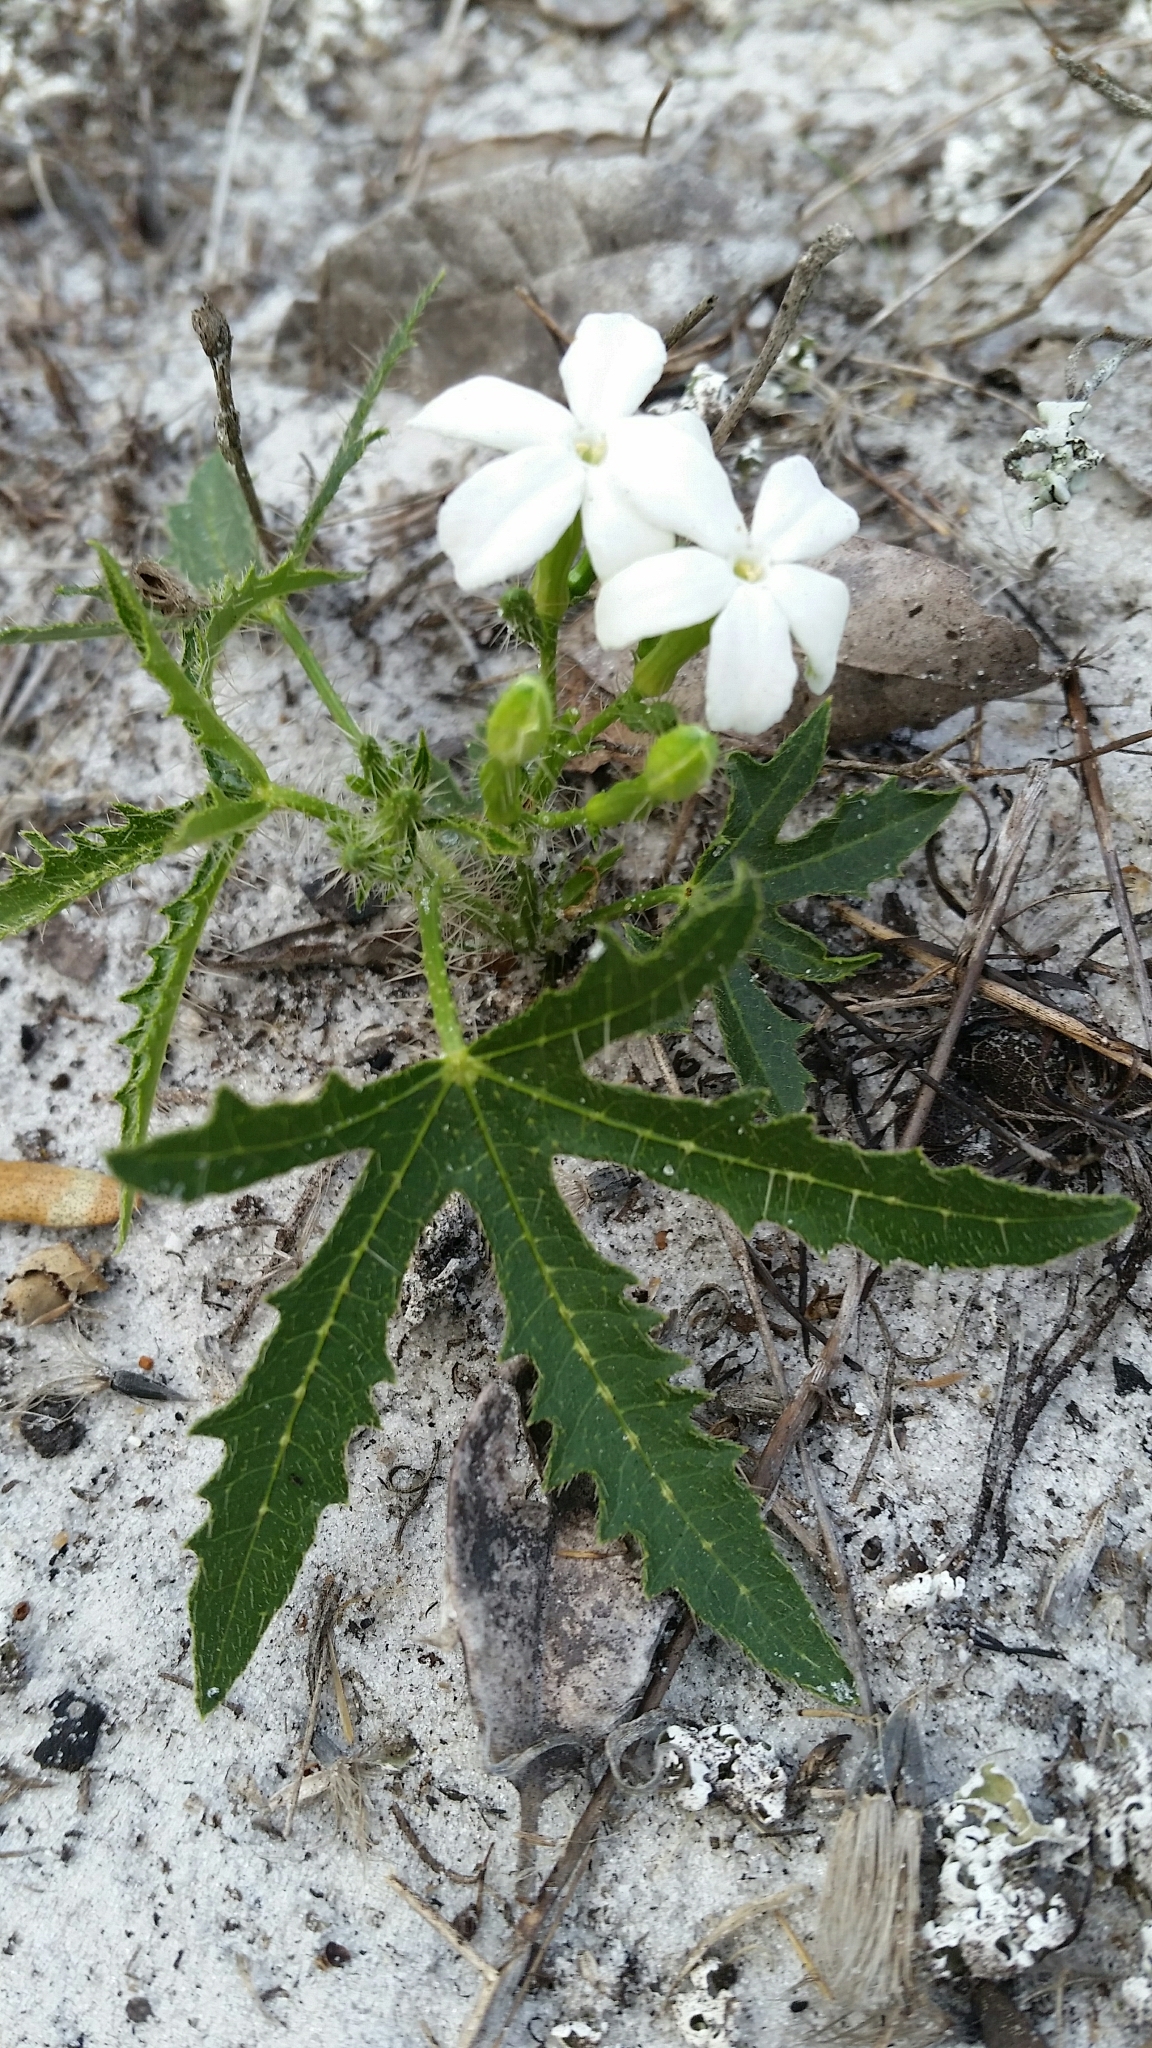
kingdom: Plantae
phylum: Tracheophyta
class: Magnoliopsida
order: Malpighiales
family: Euphorbiaceae
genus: Cnidoscolus
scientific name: Cnidoscolus stimulosus
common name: Bull-nettle
